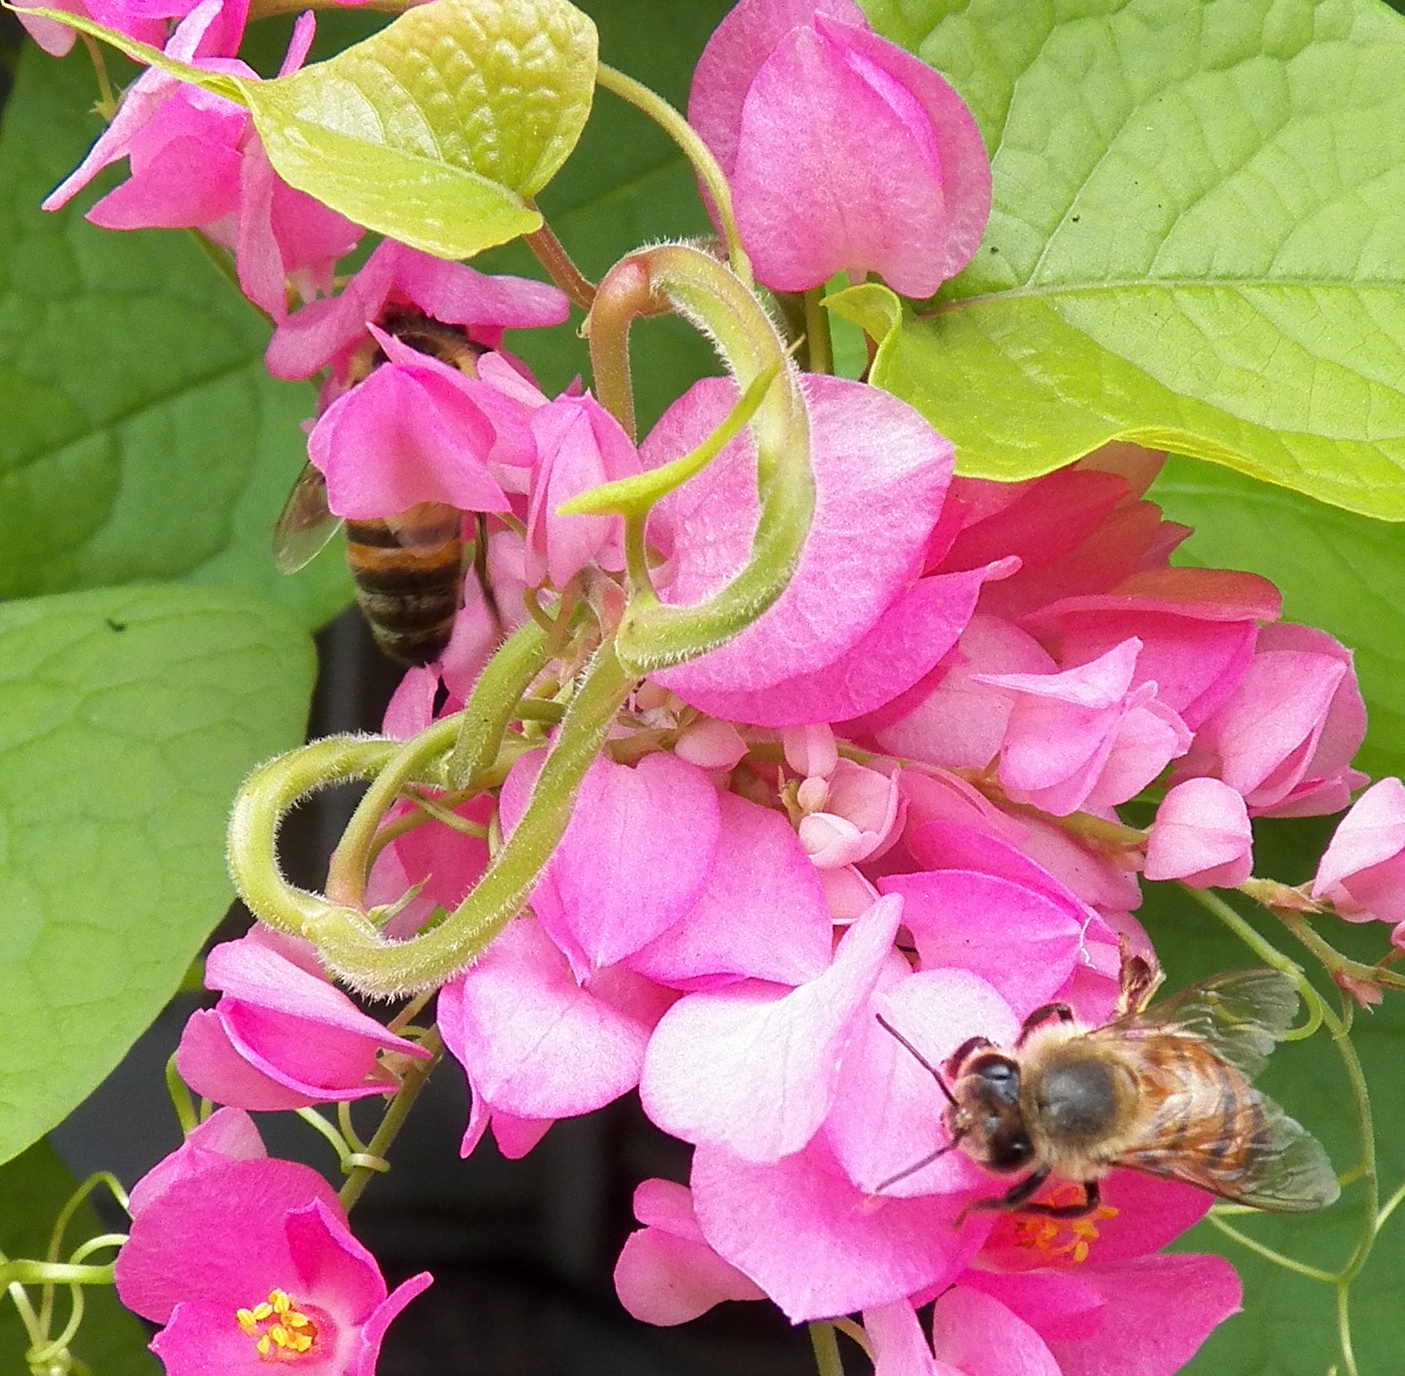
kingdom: Animalia
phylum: Arthropoda
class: Insecta
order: Hymenoptera
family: Apidae
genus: Apis
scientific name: Apis mellifera
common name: Honey bee
